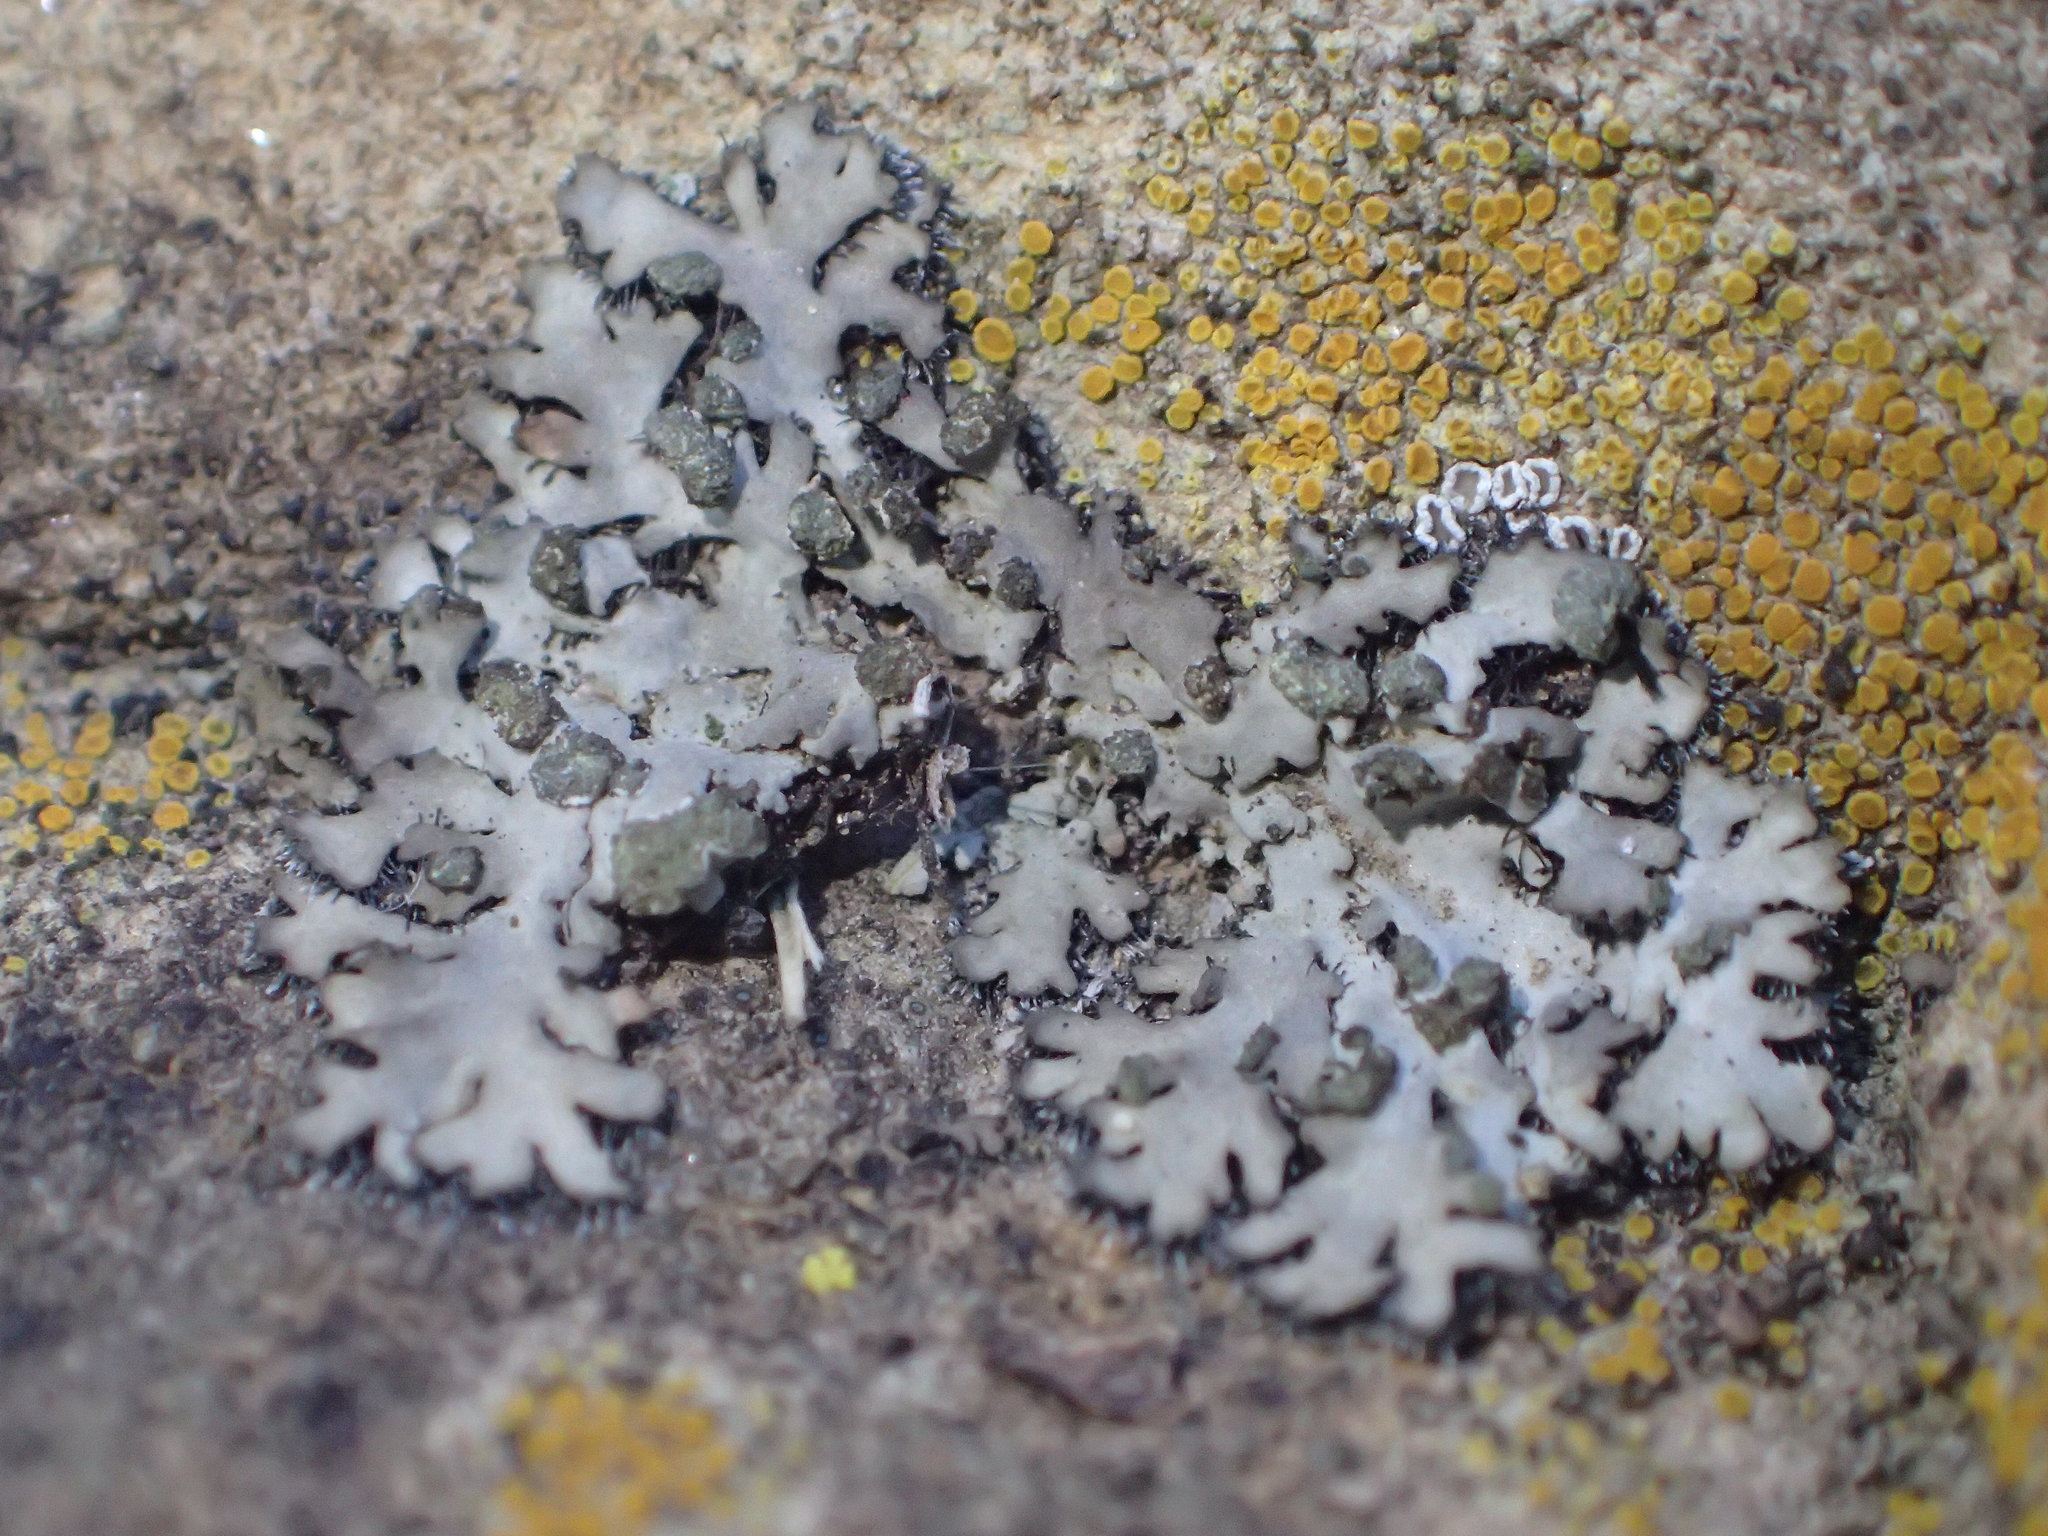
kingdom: Fungi
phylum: Ascomycota
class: Lecanoromycetes
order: Caliciales
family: Physciaceae
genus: Phaeophyscia
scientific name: Phaeophyscia hirsuta
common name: Hairy shadow lichen
